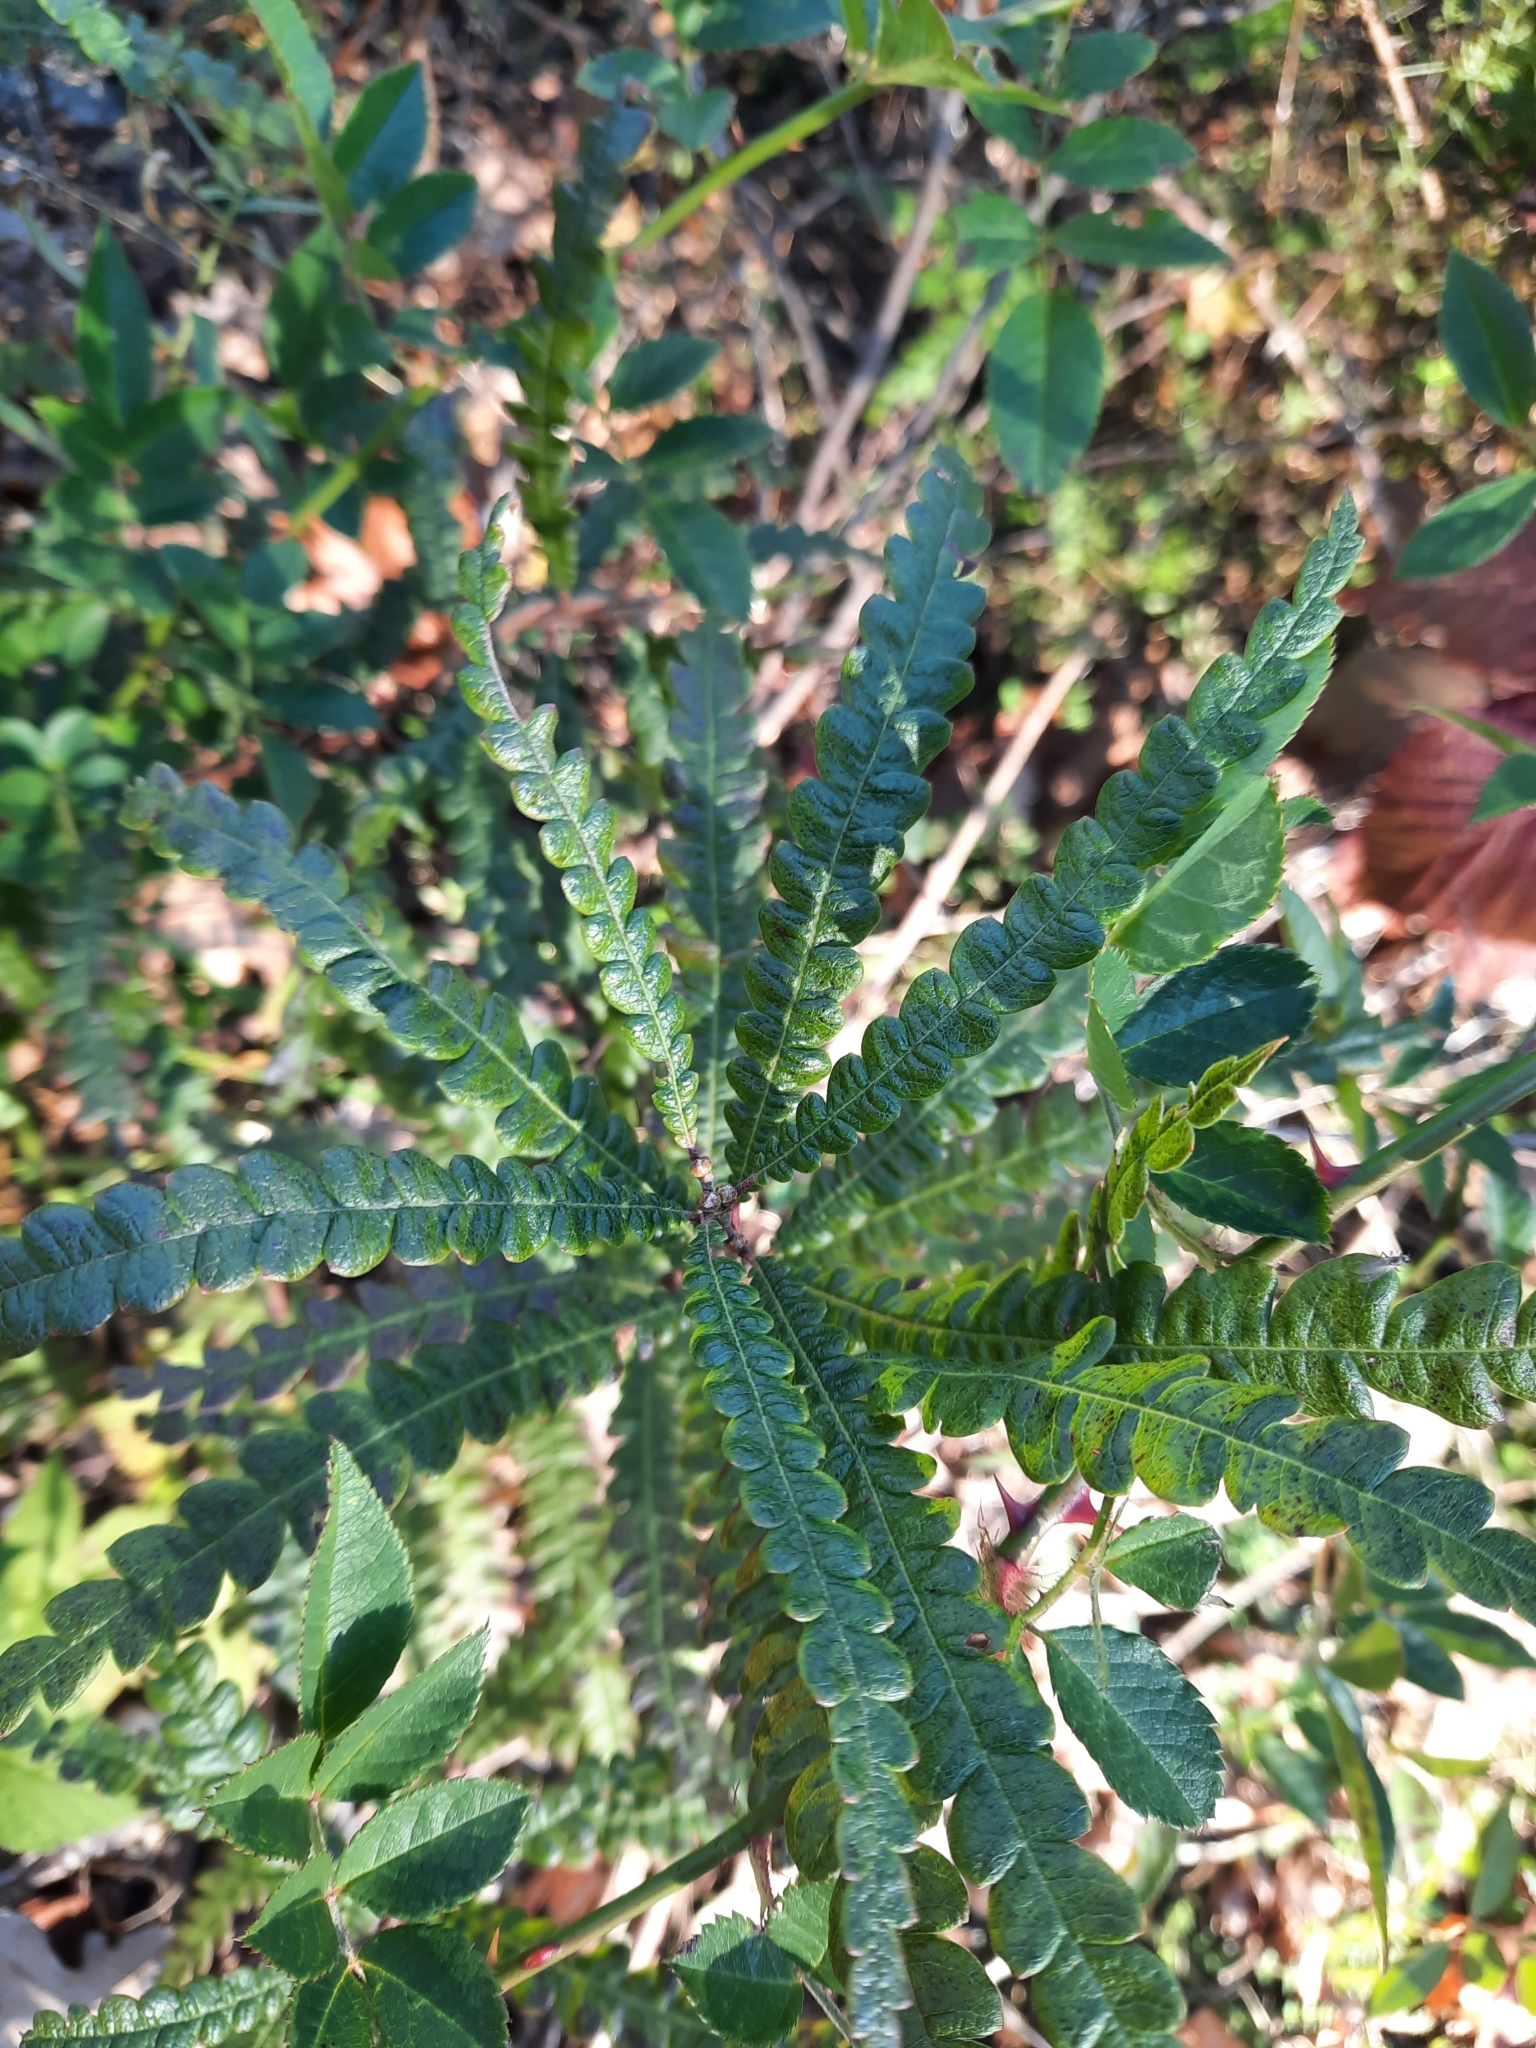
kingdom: Plantae
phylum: Tracheophyta
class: Magnoliopsida
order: Fagales
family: Myricaceae
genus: Comptonia
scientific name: Comptonia peregrina
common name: Sweet-fern
